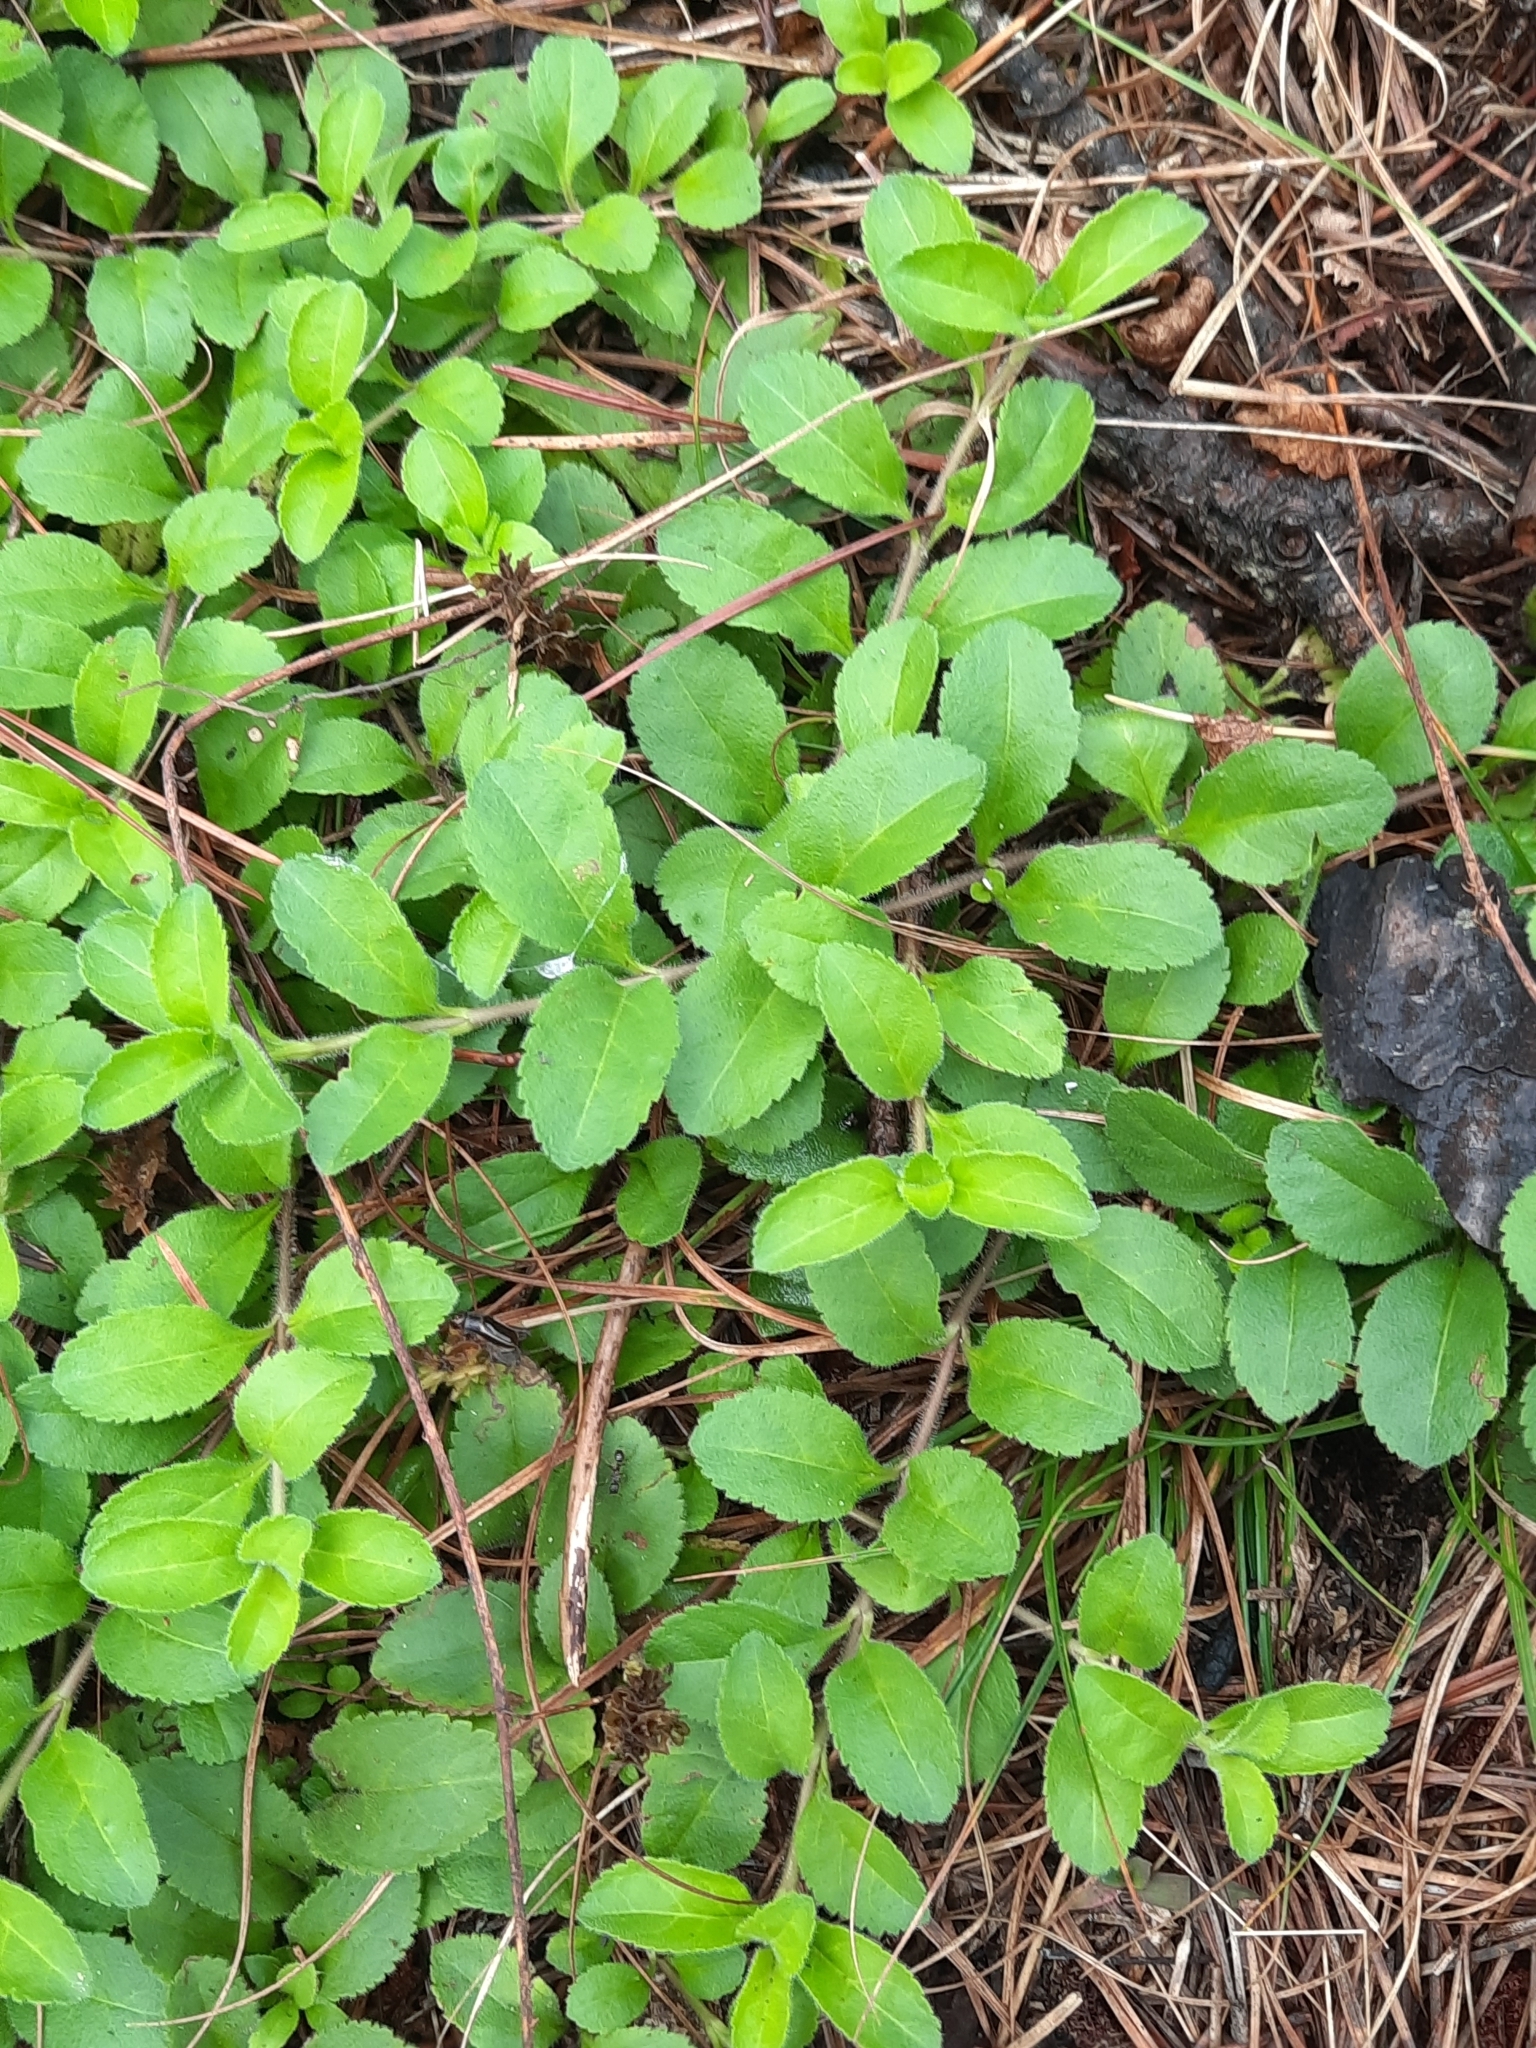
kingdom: Plantae
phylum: Tracheophyta
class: Magnoliopsida
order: Lamiales
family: Plantaginaceae
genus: Veronica
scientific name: Veronica officinalis
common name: Common speedwell
